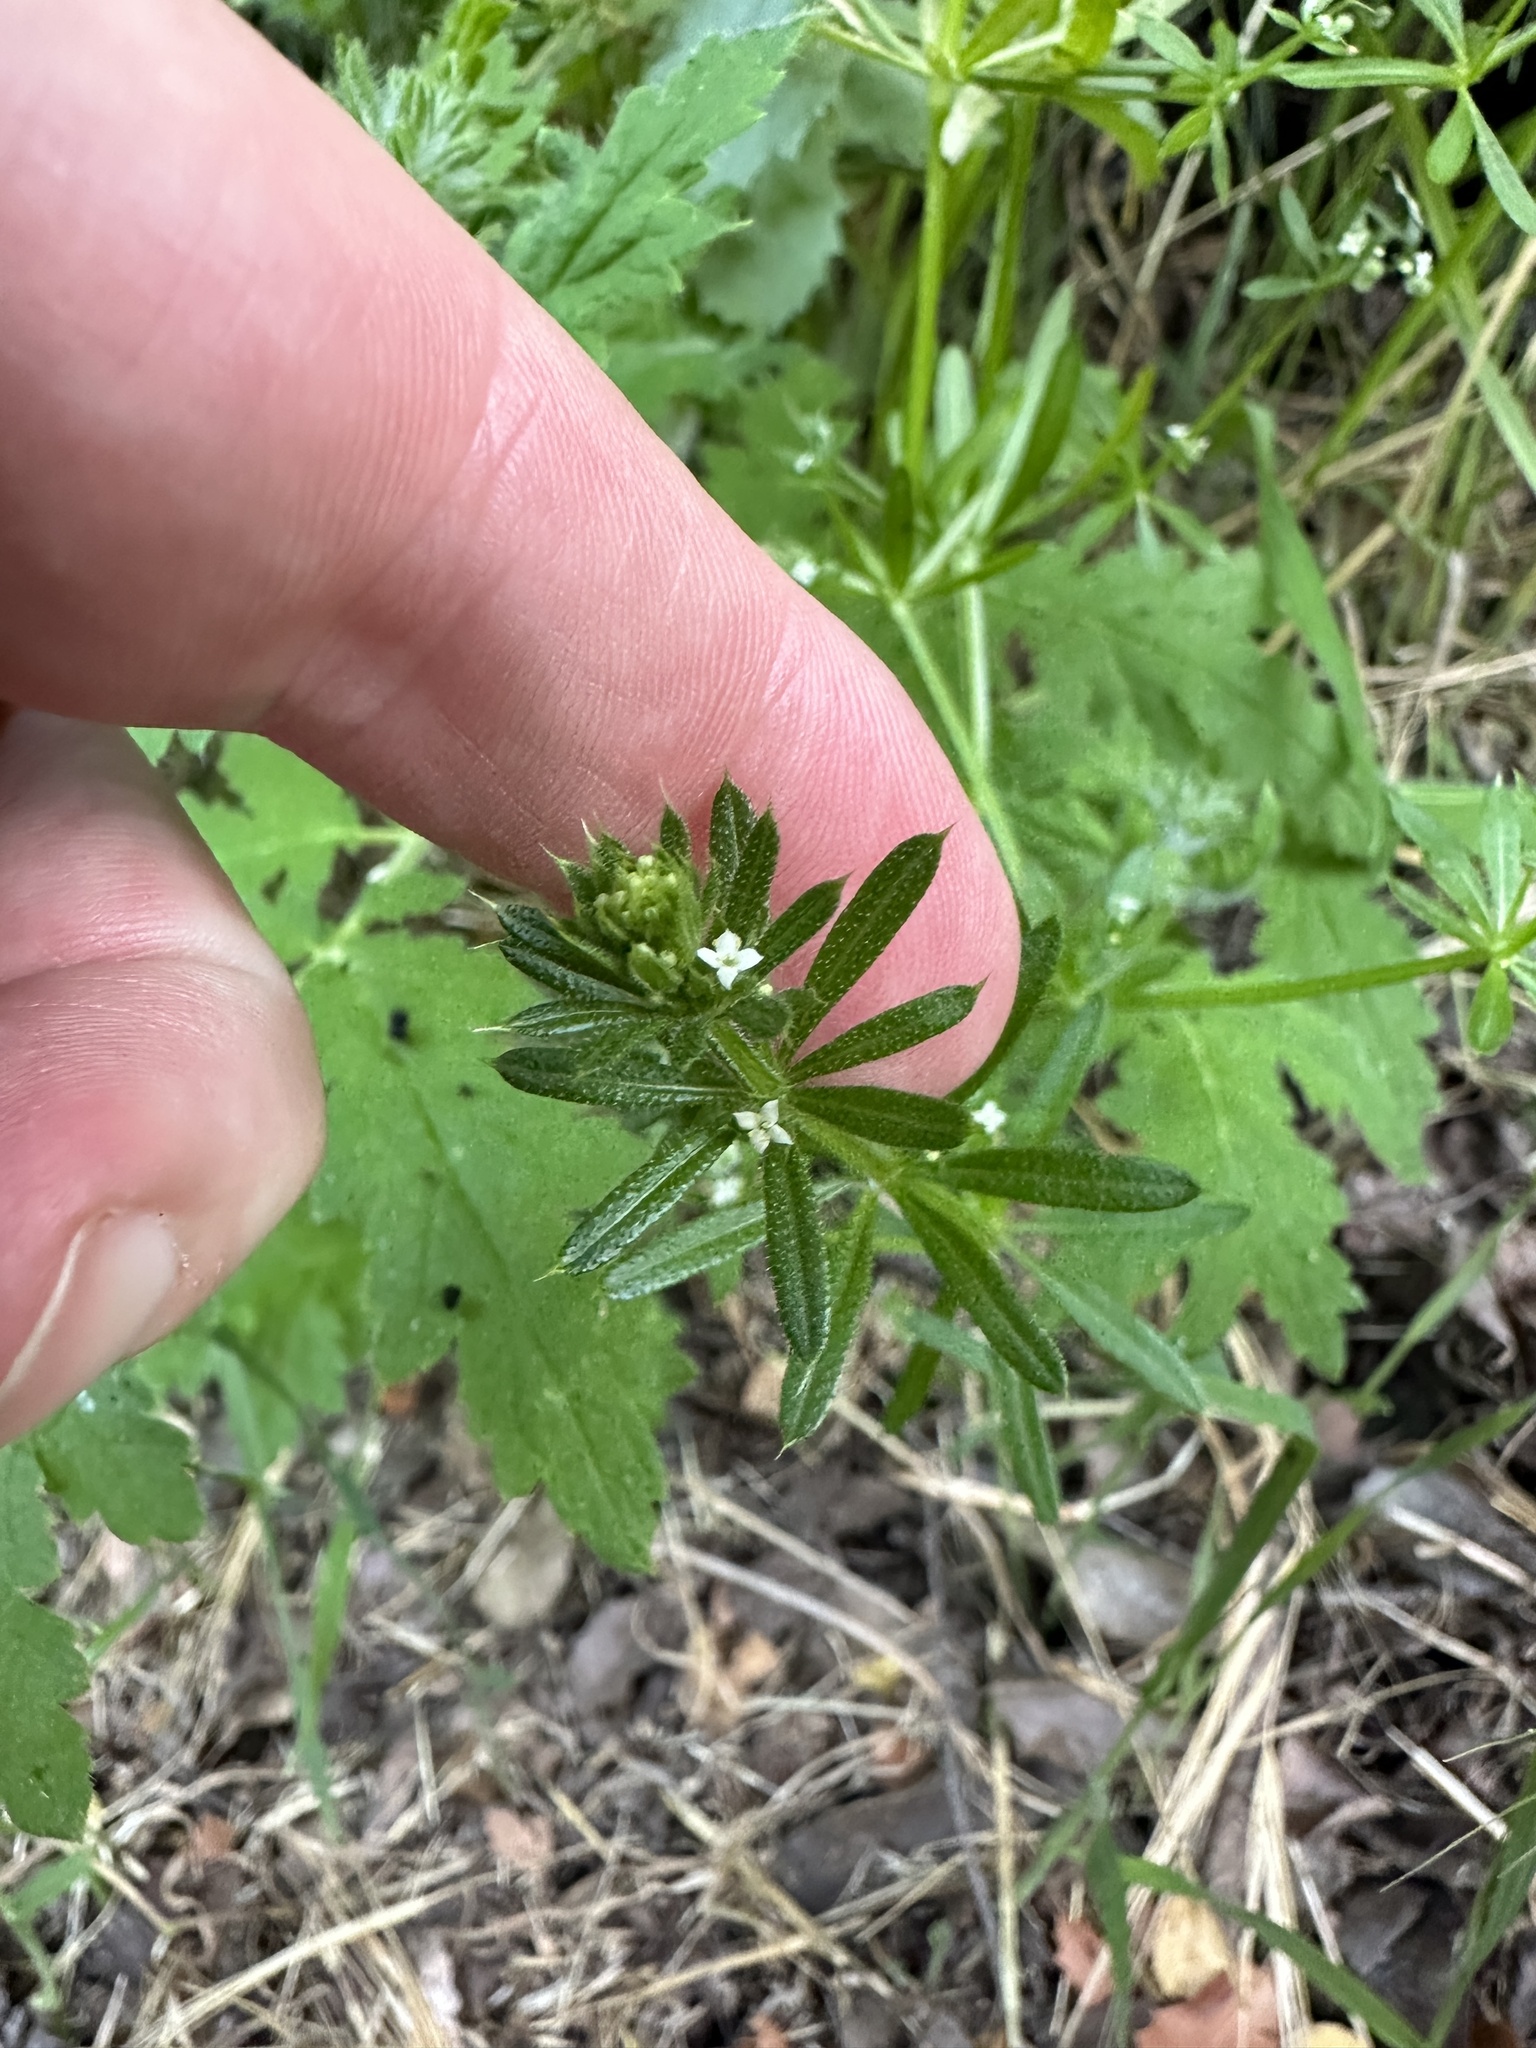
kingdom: Plantae
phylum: Tracheophyta
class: Magnoliopsida
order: Gentianales
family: Rubiaceae
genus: Galium
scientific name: Galium aparine
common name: Cleavers
